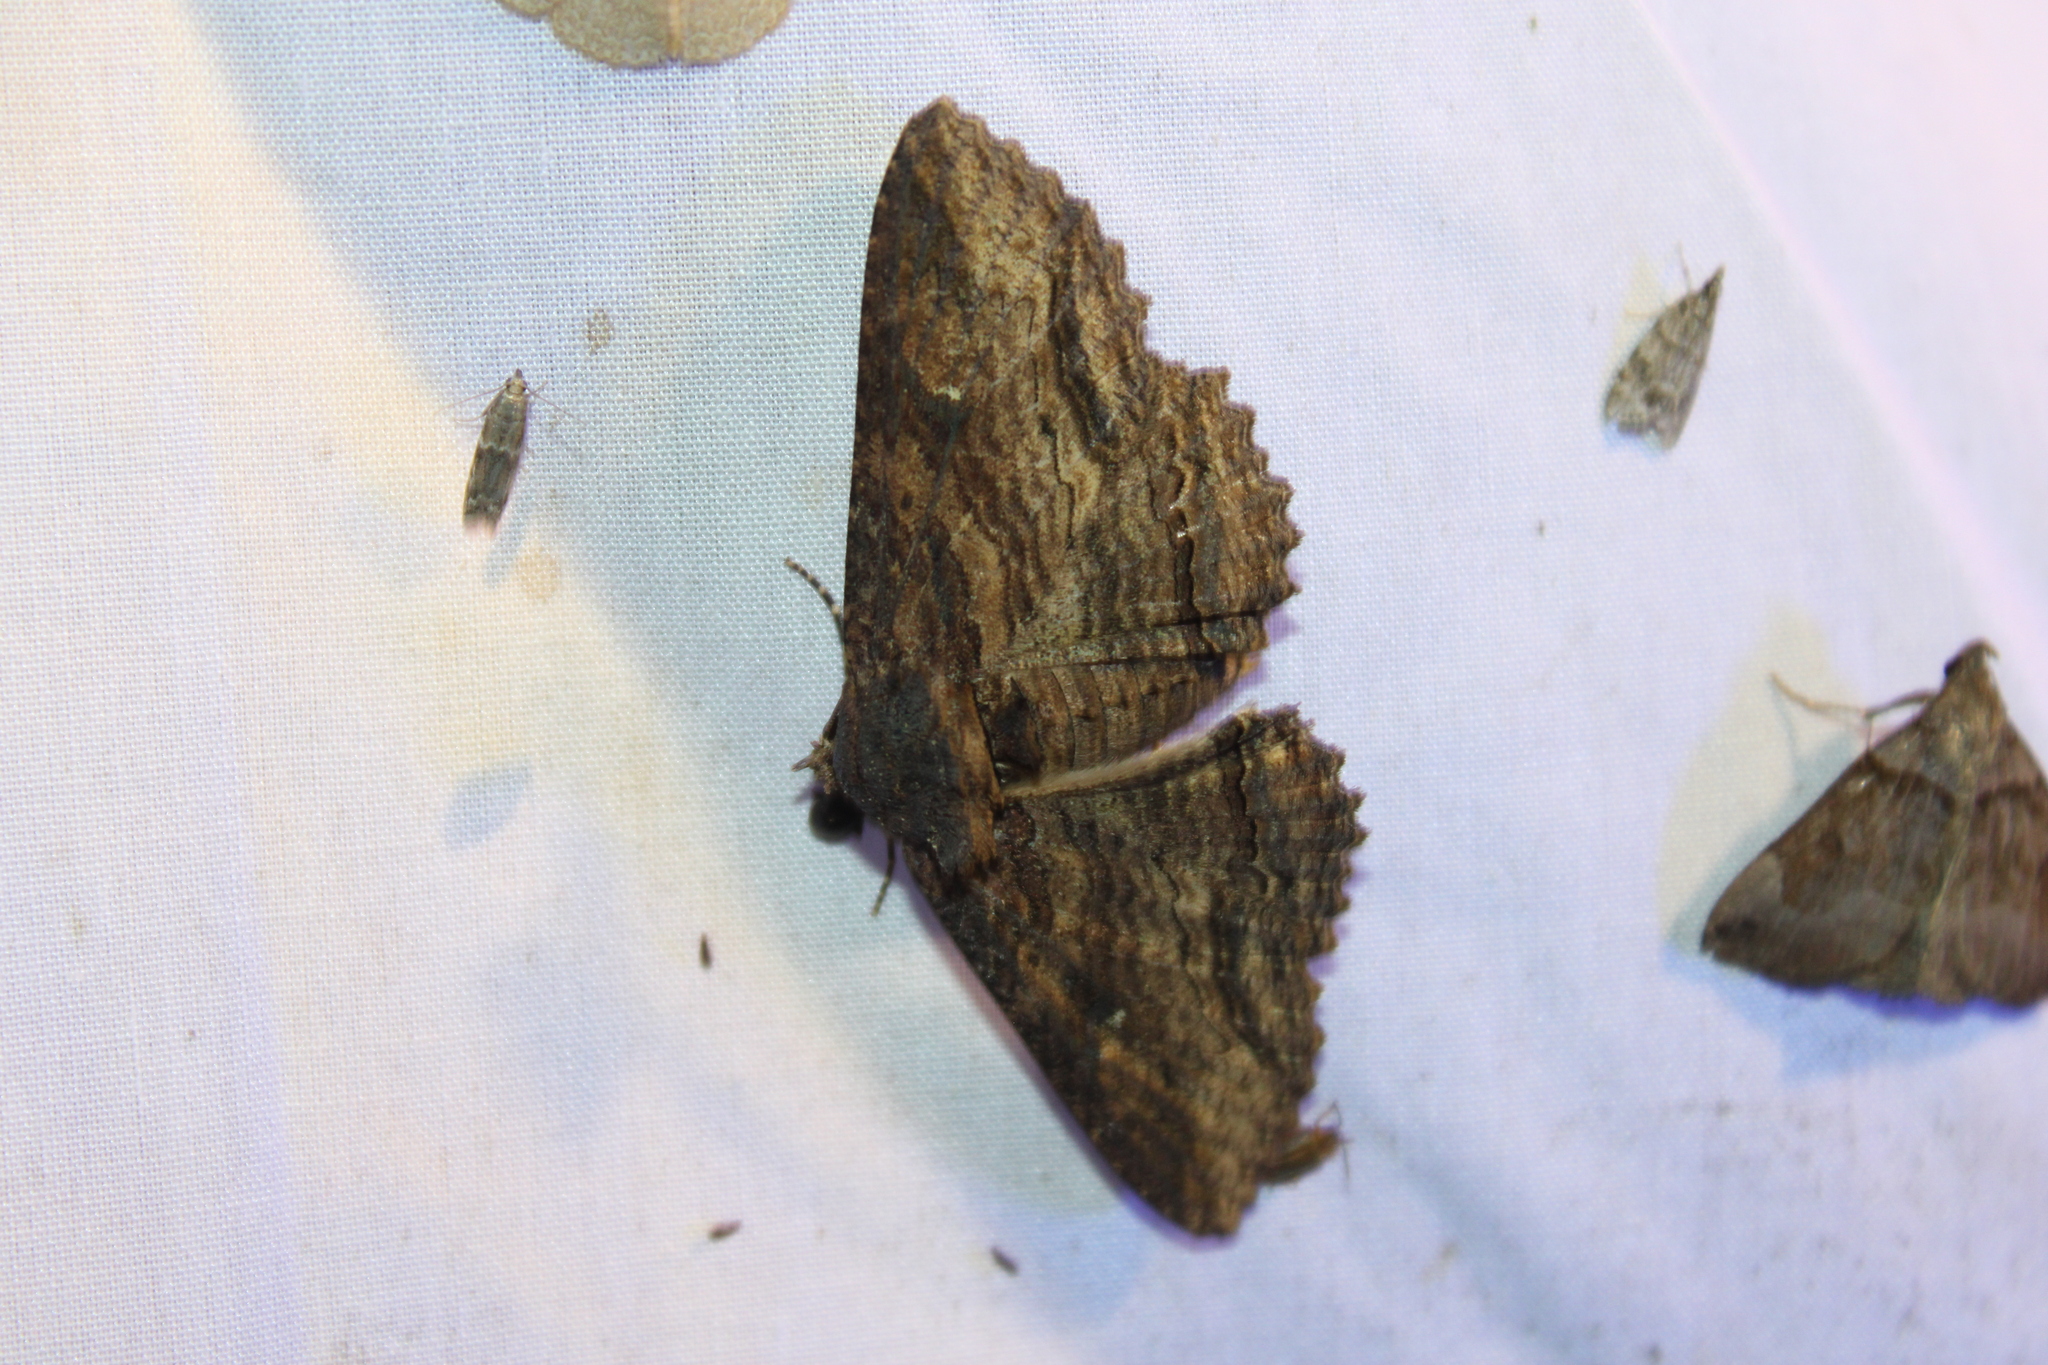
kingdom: Animalia
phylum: Arthropoda
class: Insecta
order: Lepidoptera
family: Erebidae
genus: Zale
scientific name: Zale lunata
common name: Lunate zale moth
